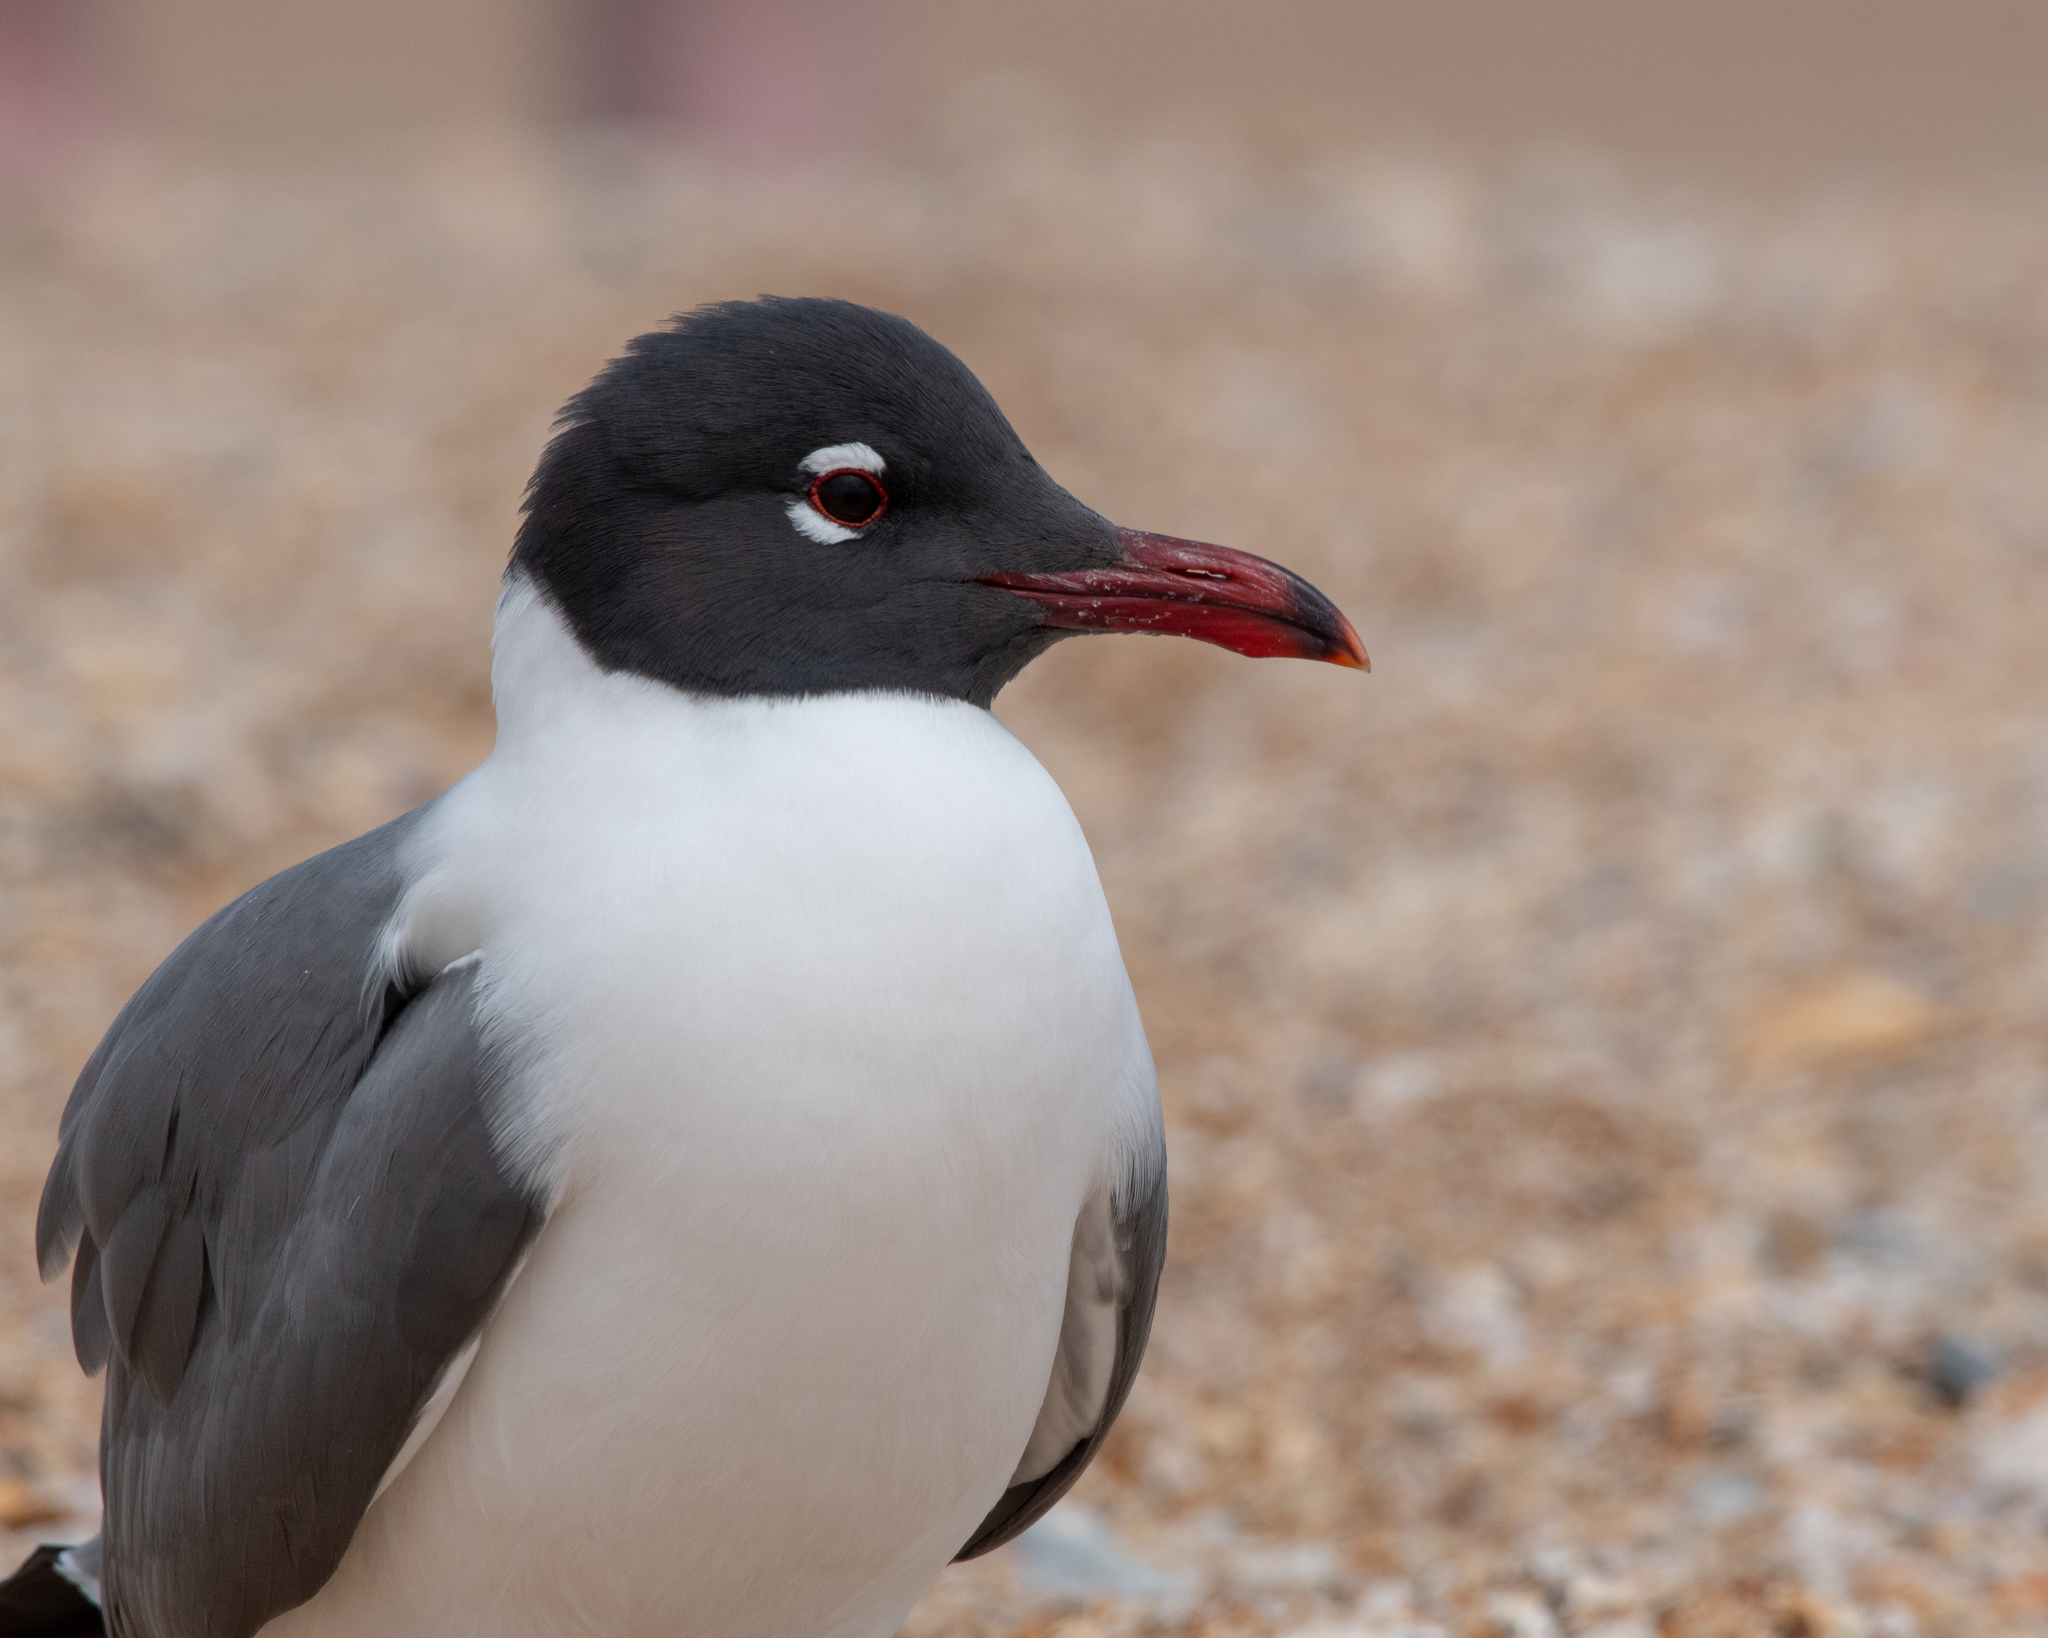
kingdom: Animalia
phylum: Chordata
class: Aves
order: Charadriiformes
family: Laridae
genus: Leucophaeus
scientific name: Leucophaeus atricilla
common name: Laughing gull
